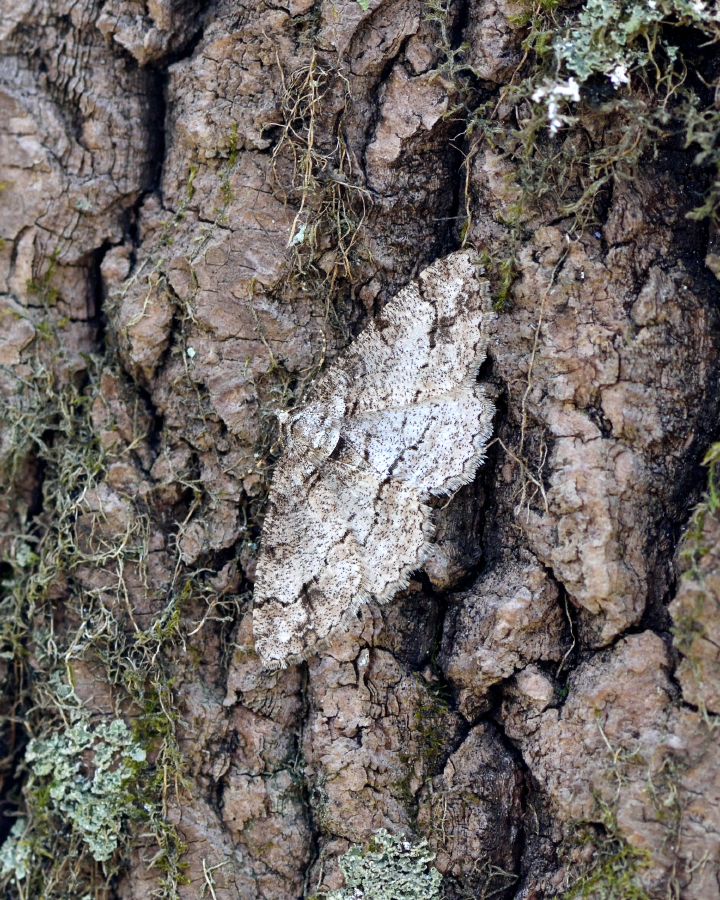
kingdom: Animalia
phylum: Arthropoda
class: Insecta
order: Lepidoptera
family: Geometridae
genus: Paradarisa
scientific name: Paradarisa consonaria
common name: Square spot
